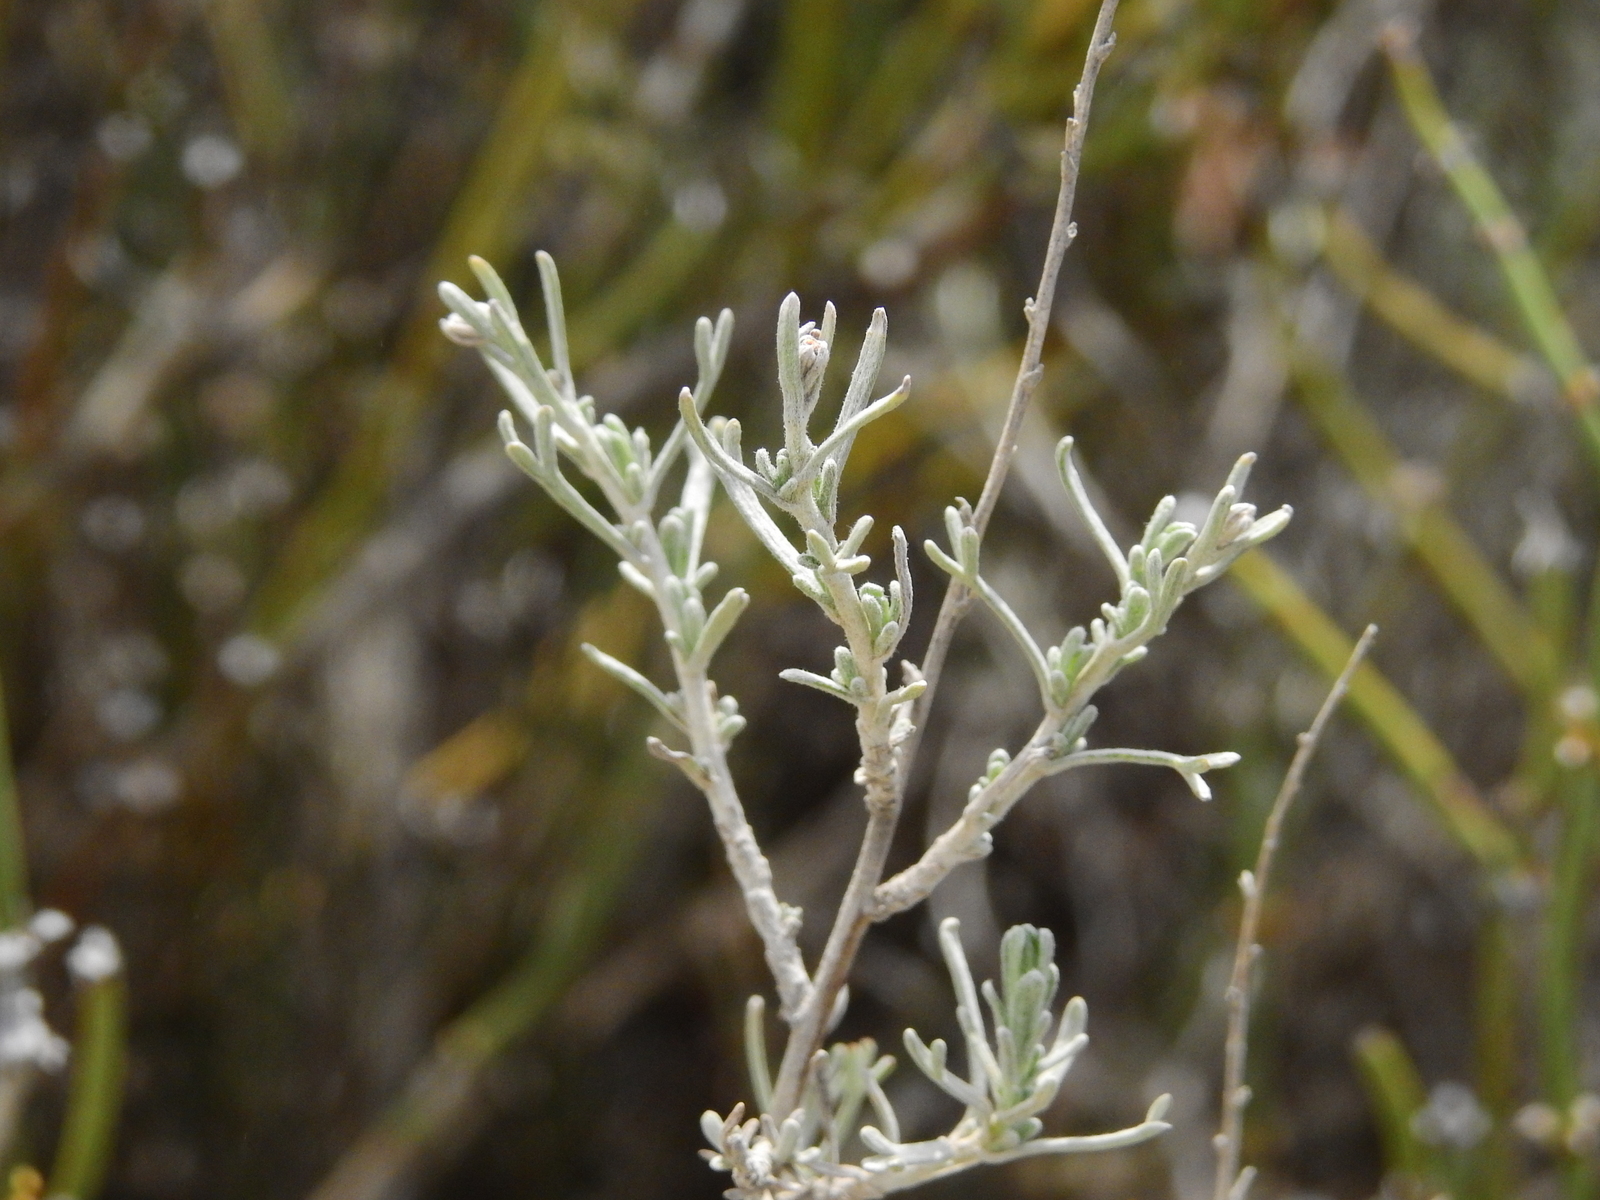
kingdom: Plantae
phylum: Tracheophyta
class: Magnoliopsida
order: Asterales
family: Asteraceae
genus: Artemisia
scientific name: Artemisia mendozana
